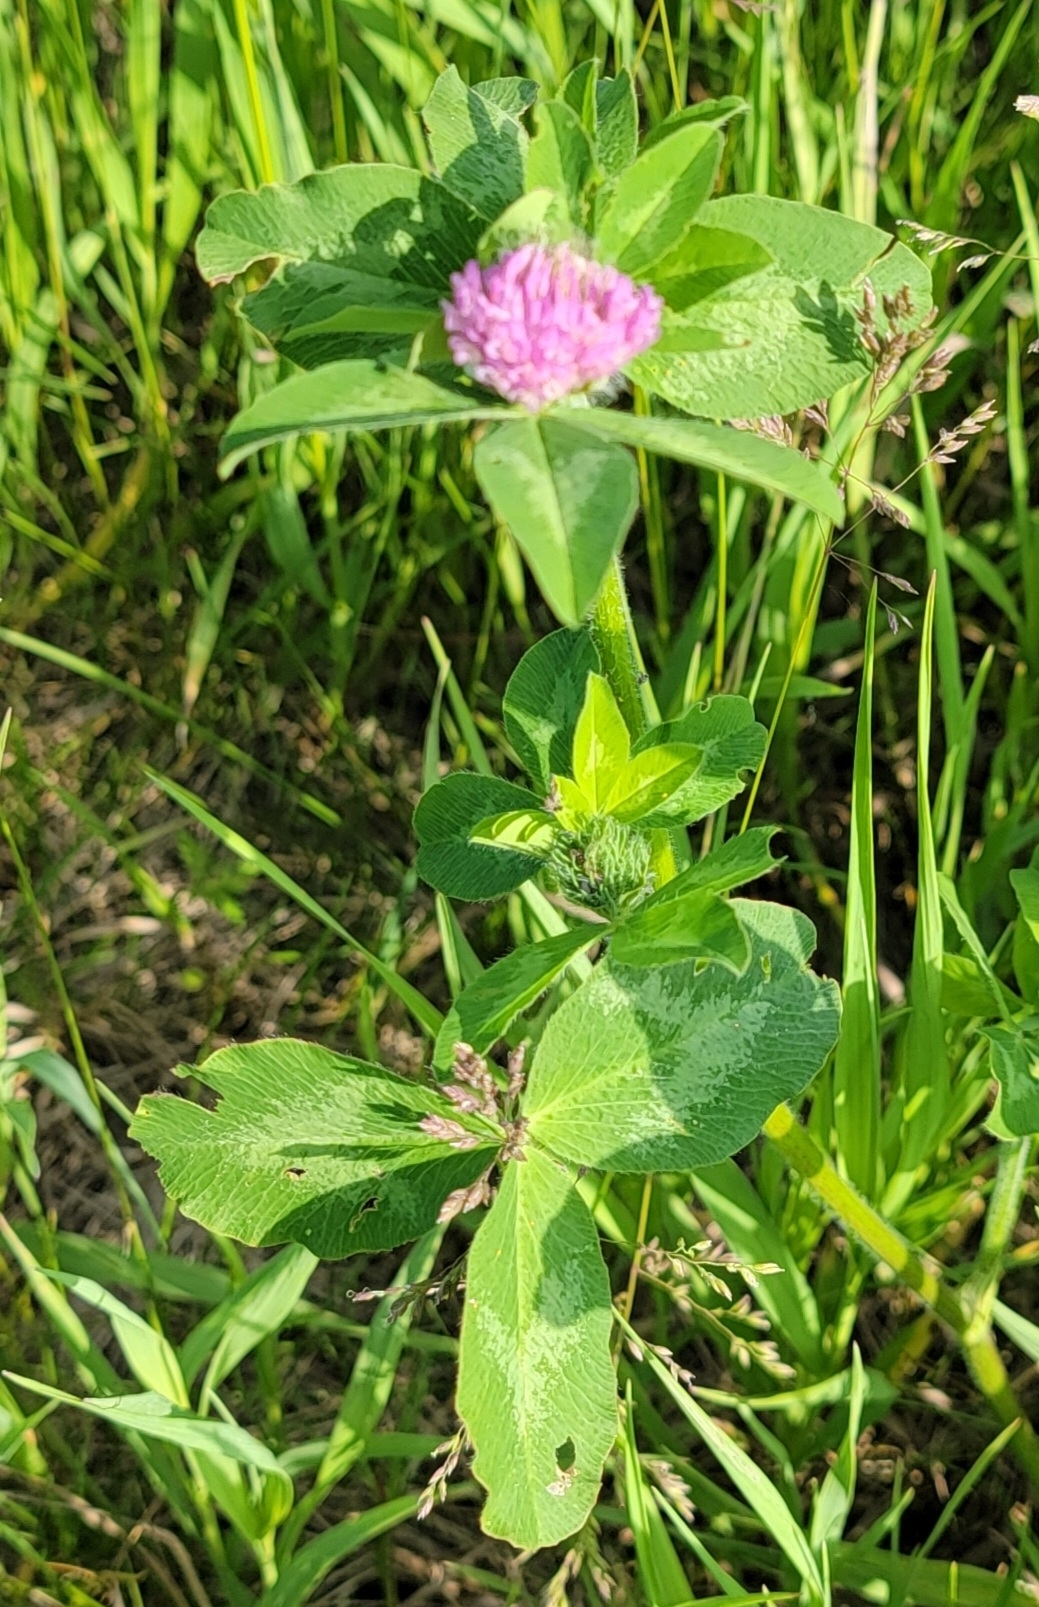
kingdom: Plantae
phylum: Tracheophyta
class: Magnoliopsida
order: Fabales
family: Fabaceae
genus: Trifolium
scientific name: Trifolium pratense
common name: Red clover
